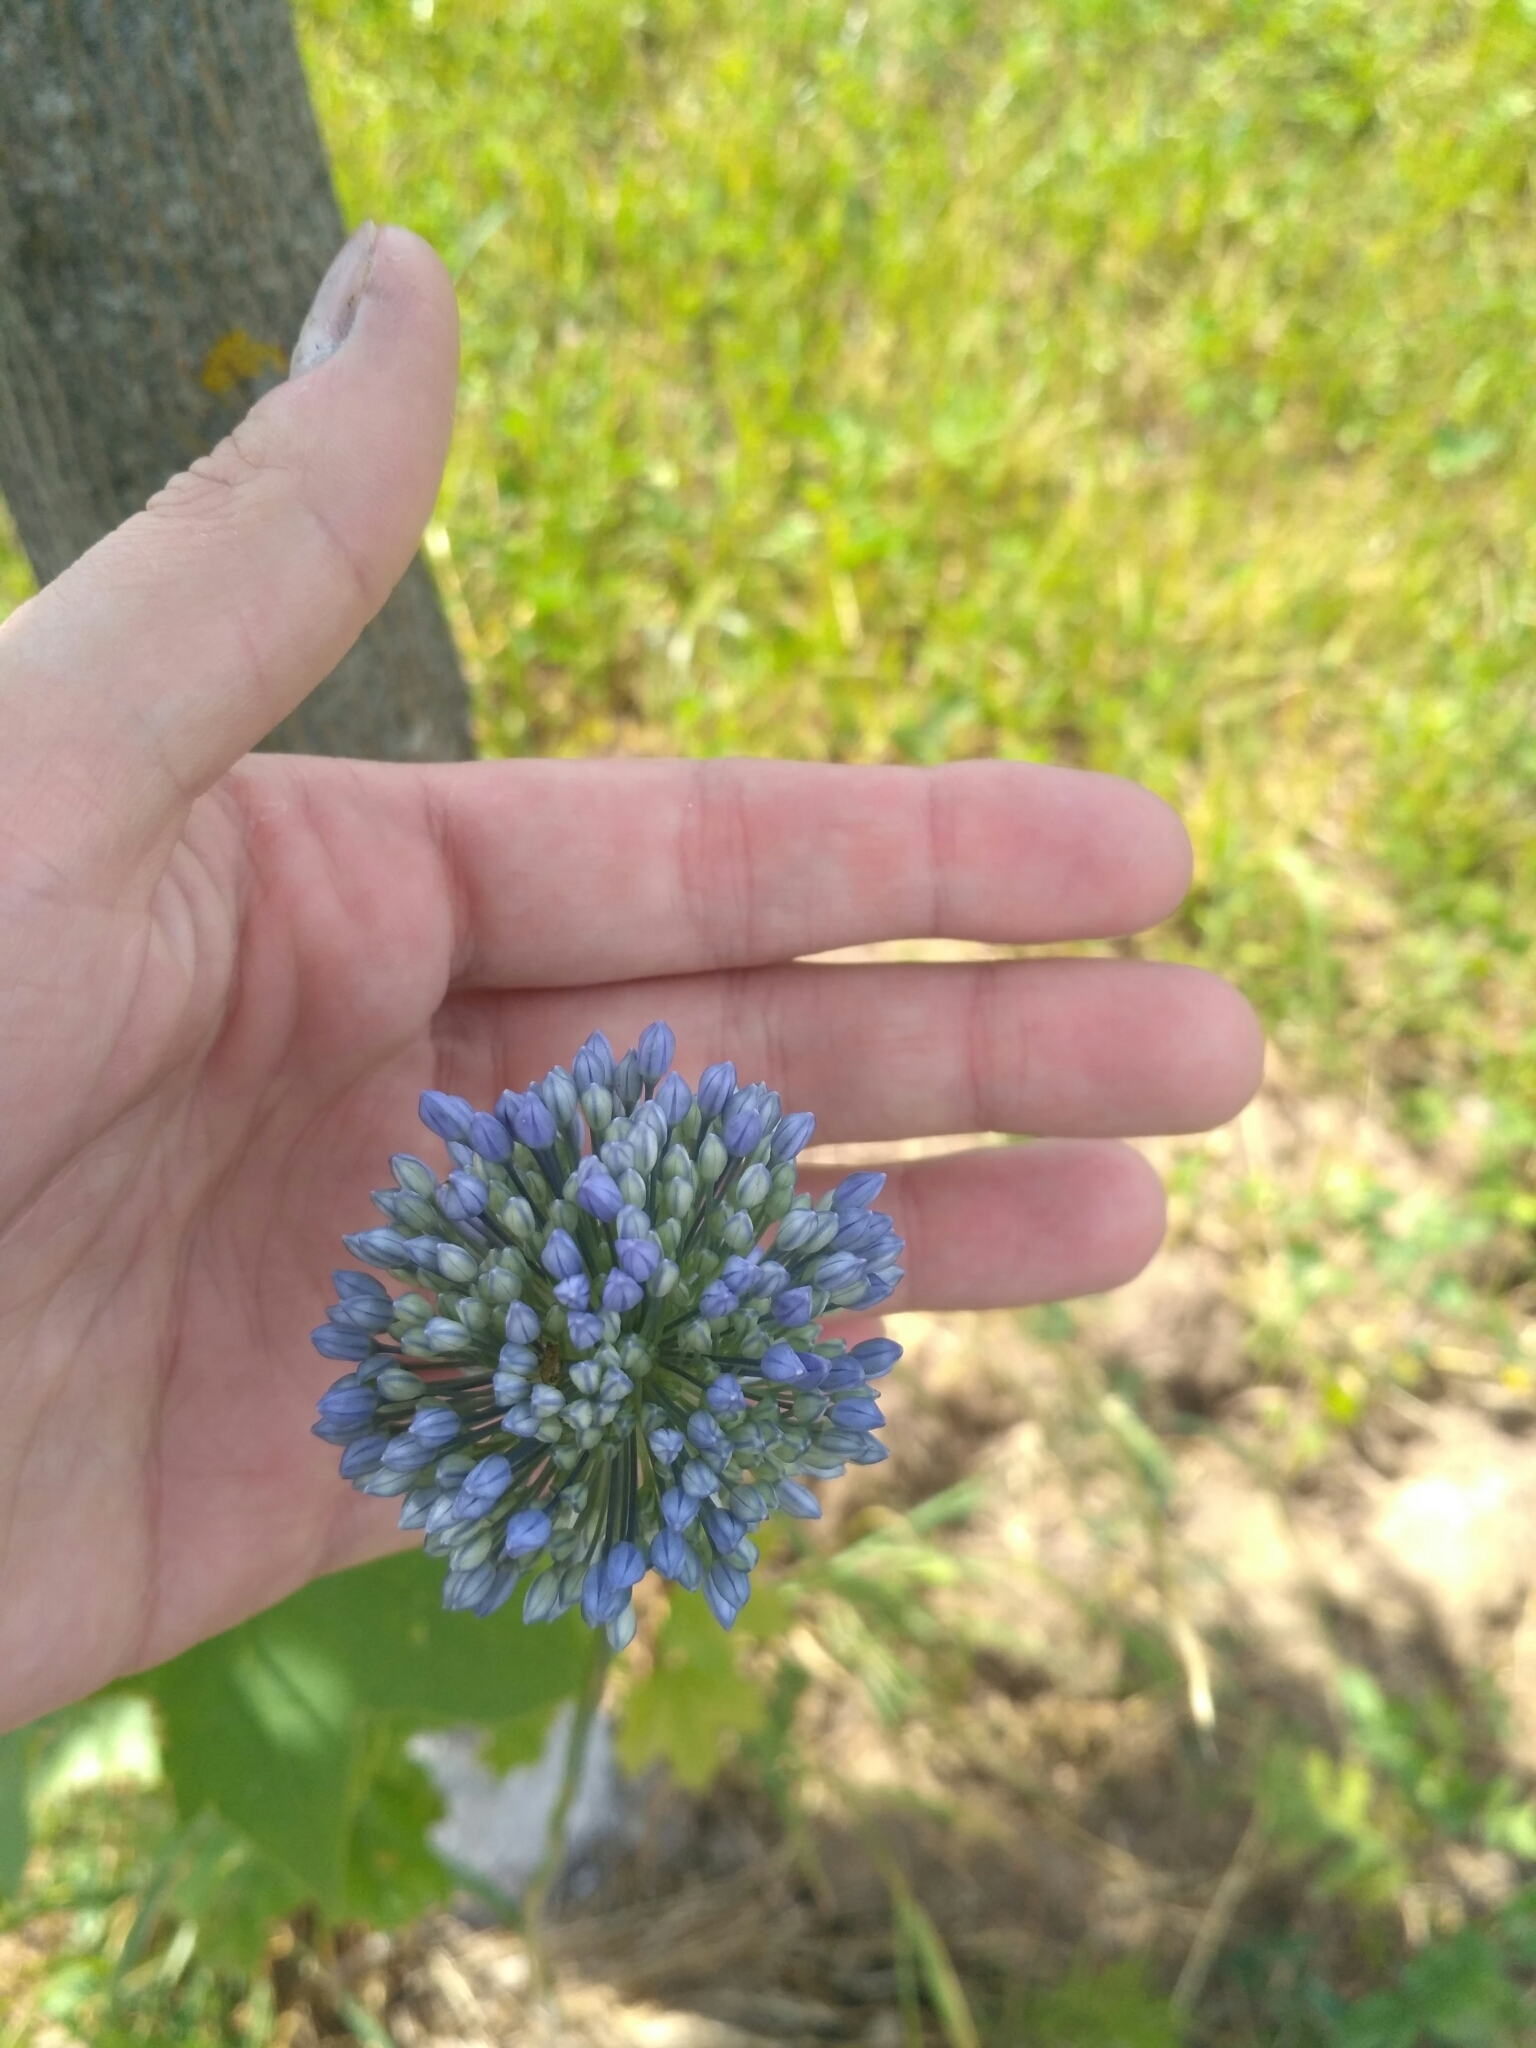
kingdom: Plantae
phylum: Tracheophyta
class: Liliopsida
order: Asparagales
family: Amaryllidaceae
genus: Allium
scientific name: Allium caeruleum
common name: Blue-of-the-heavens
